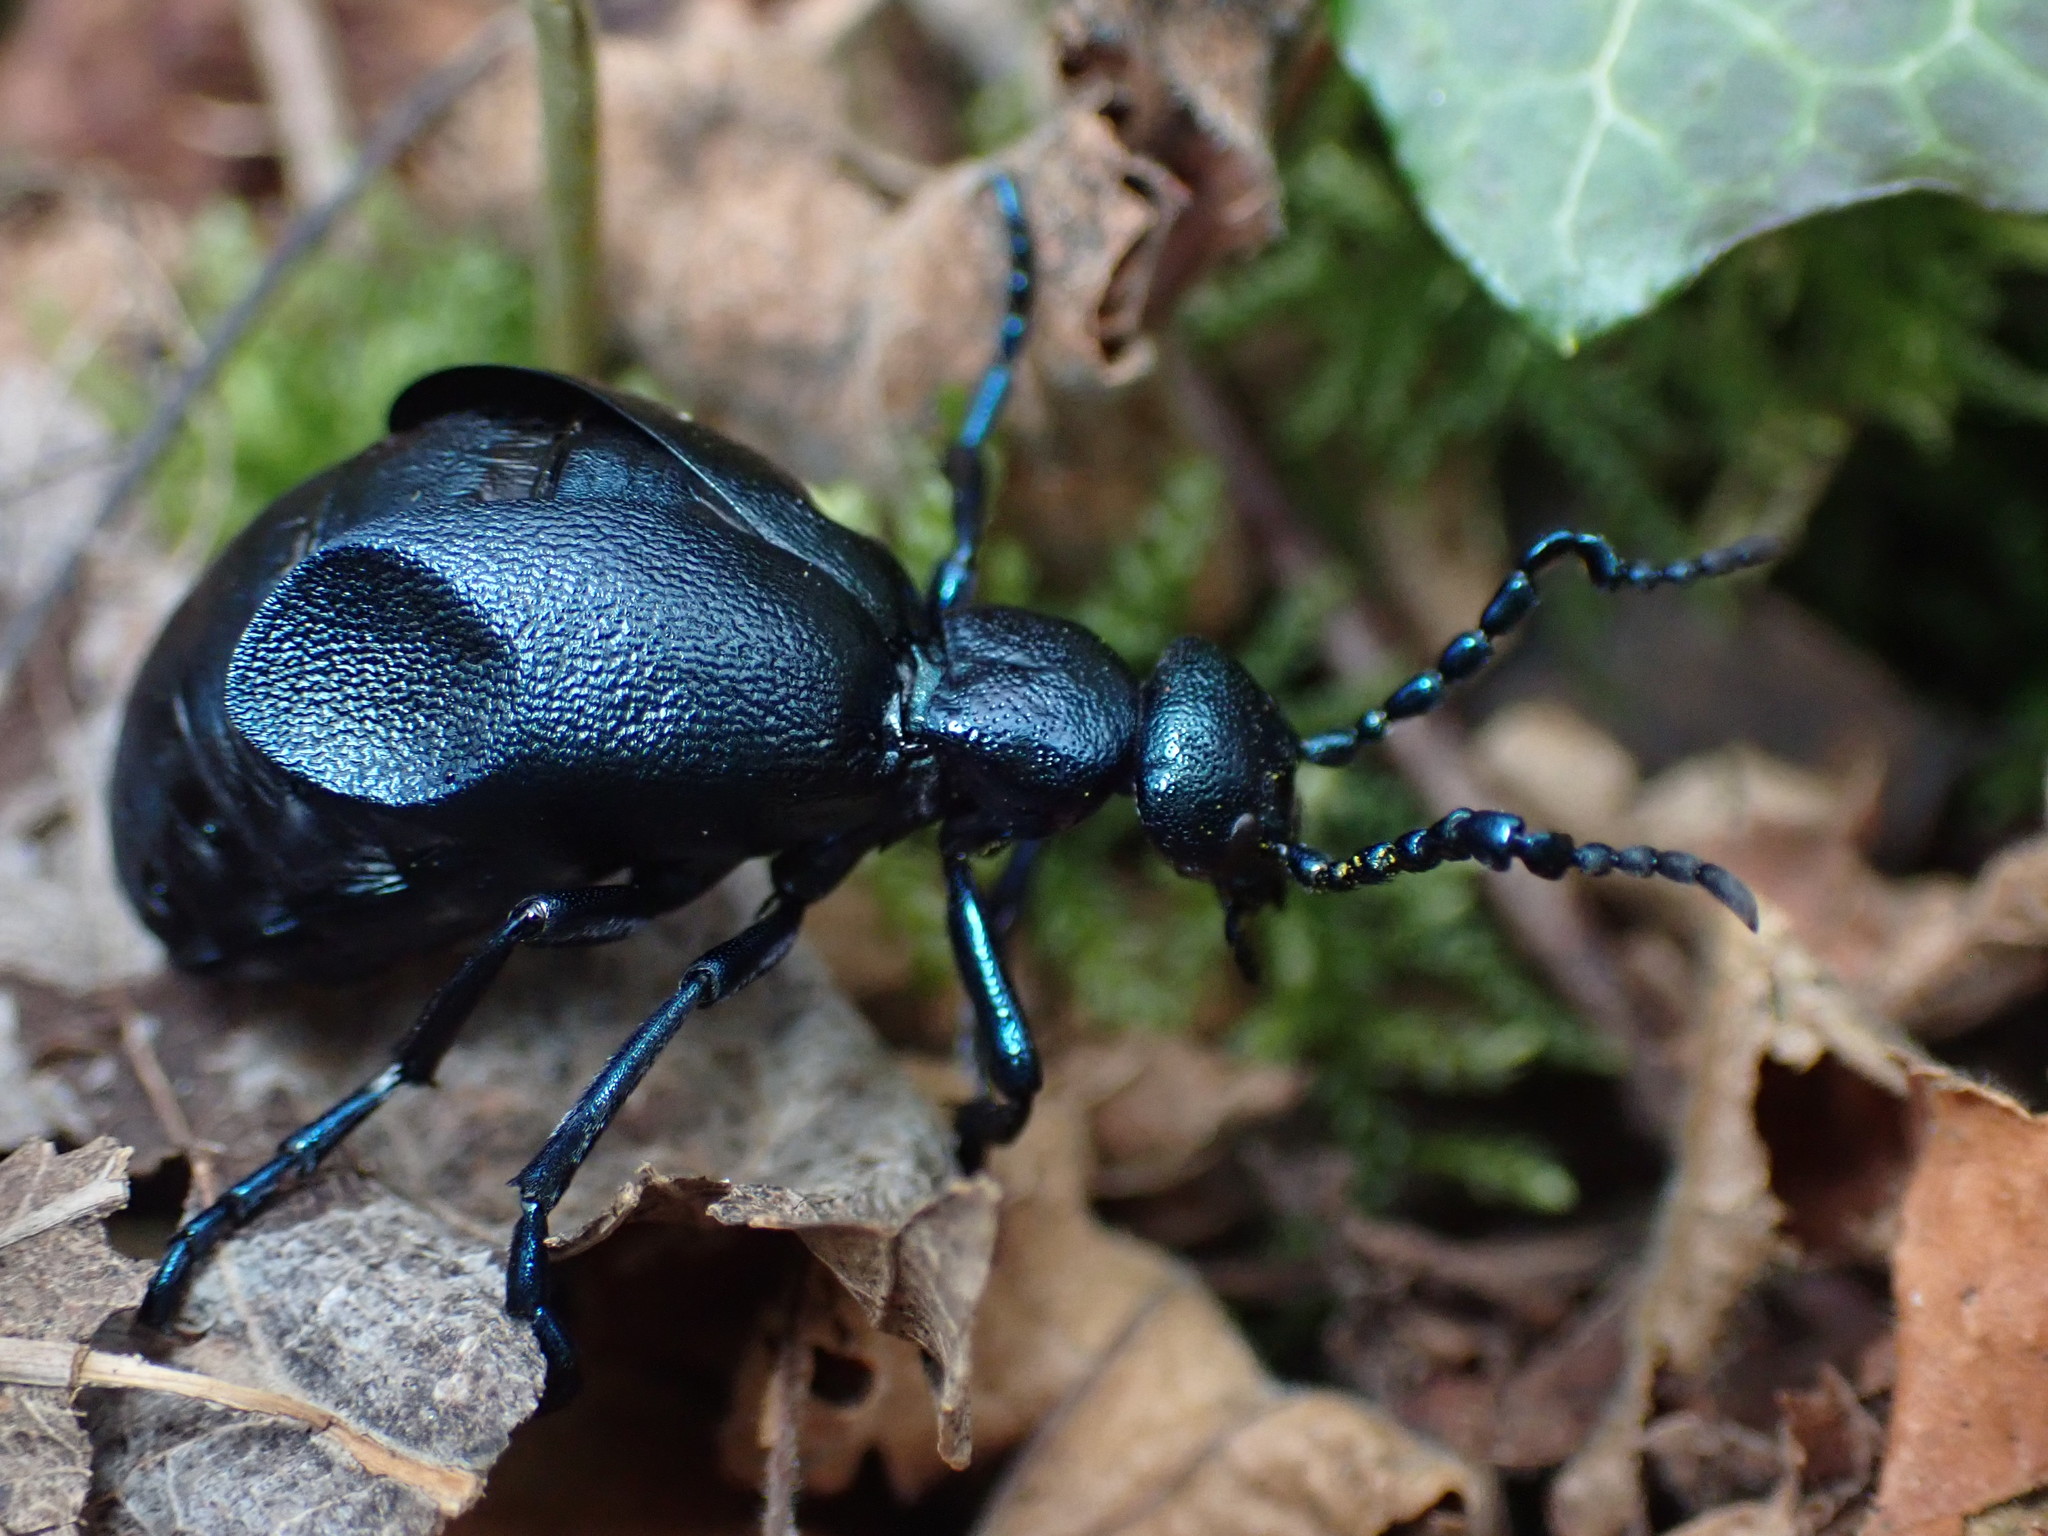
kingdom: Animalia
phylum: Arthropoda
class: Insecta
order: Coleoptera
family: Meloidae
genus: Meloe
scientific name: Meloe violaceus
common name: Violet oil-beetle
